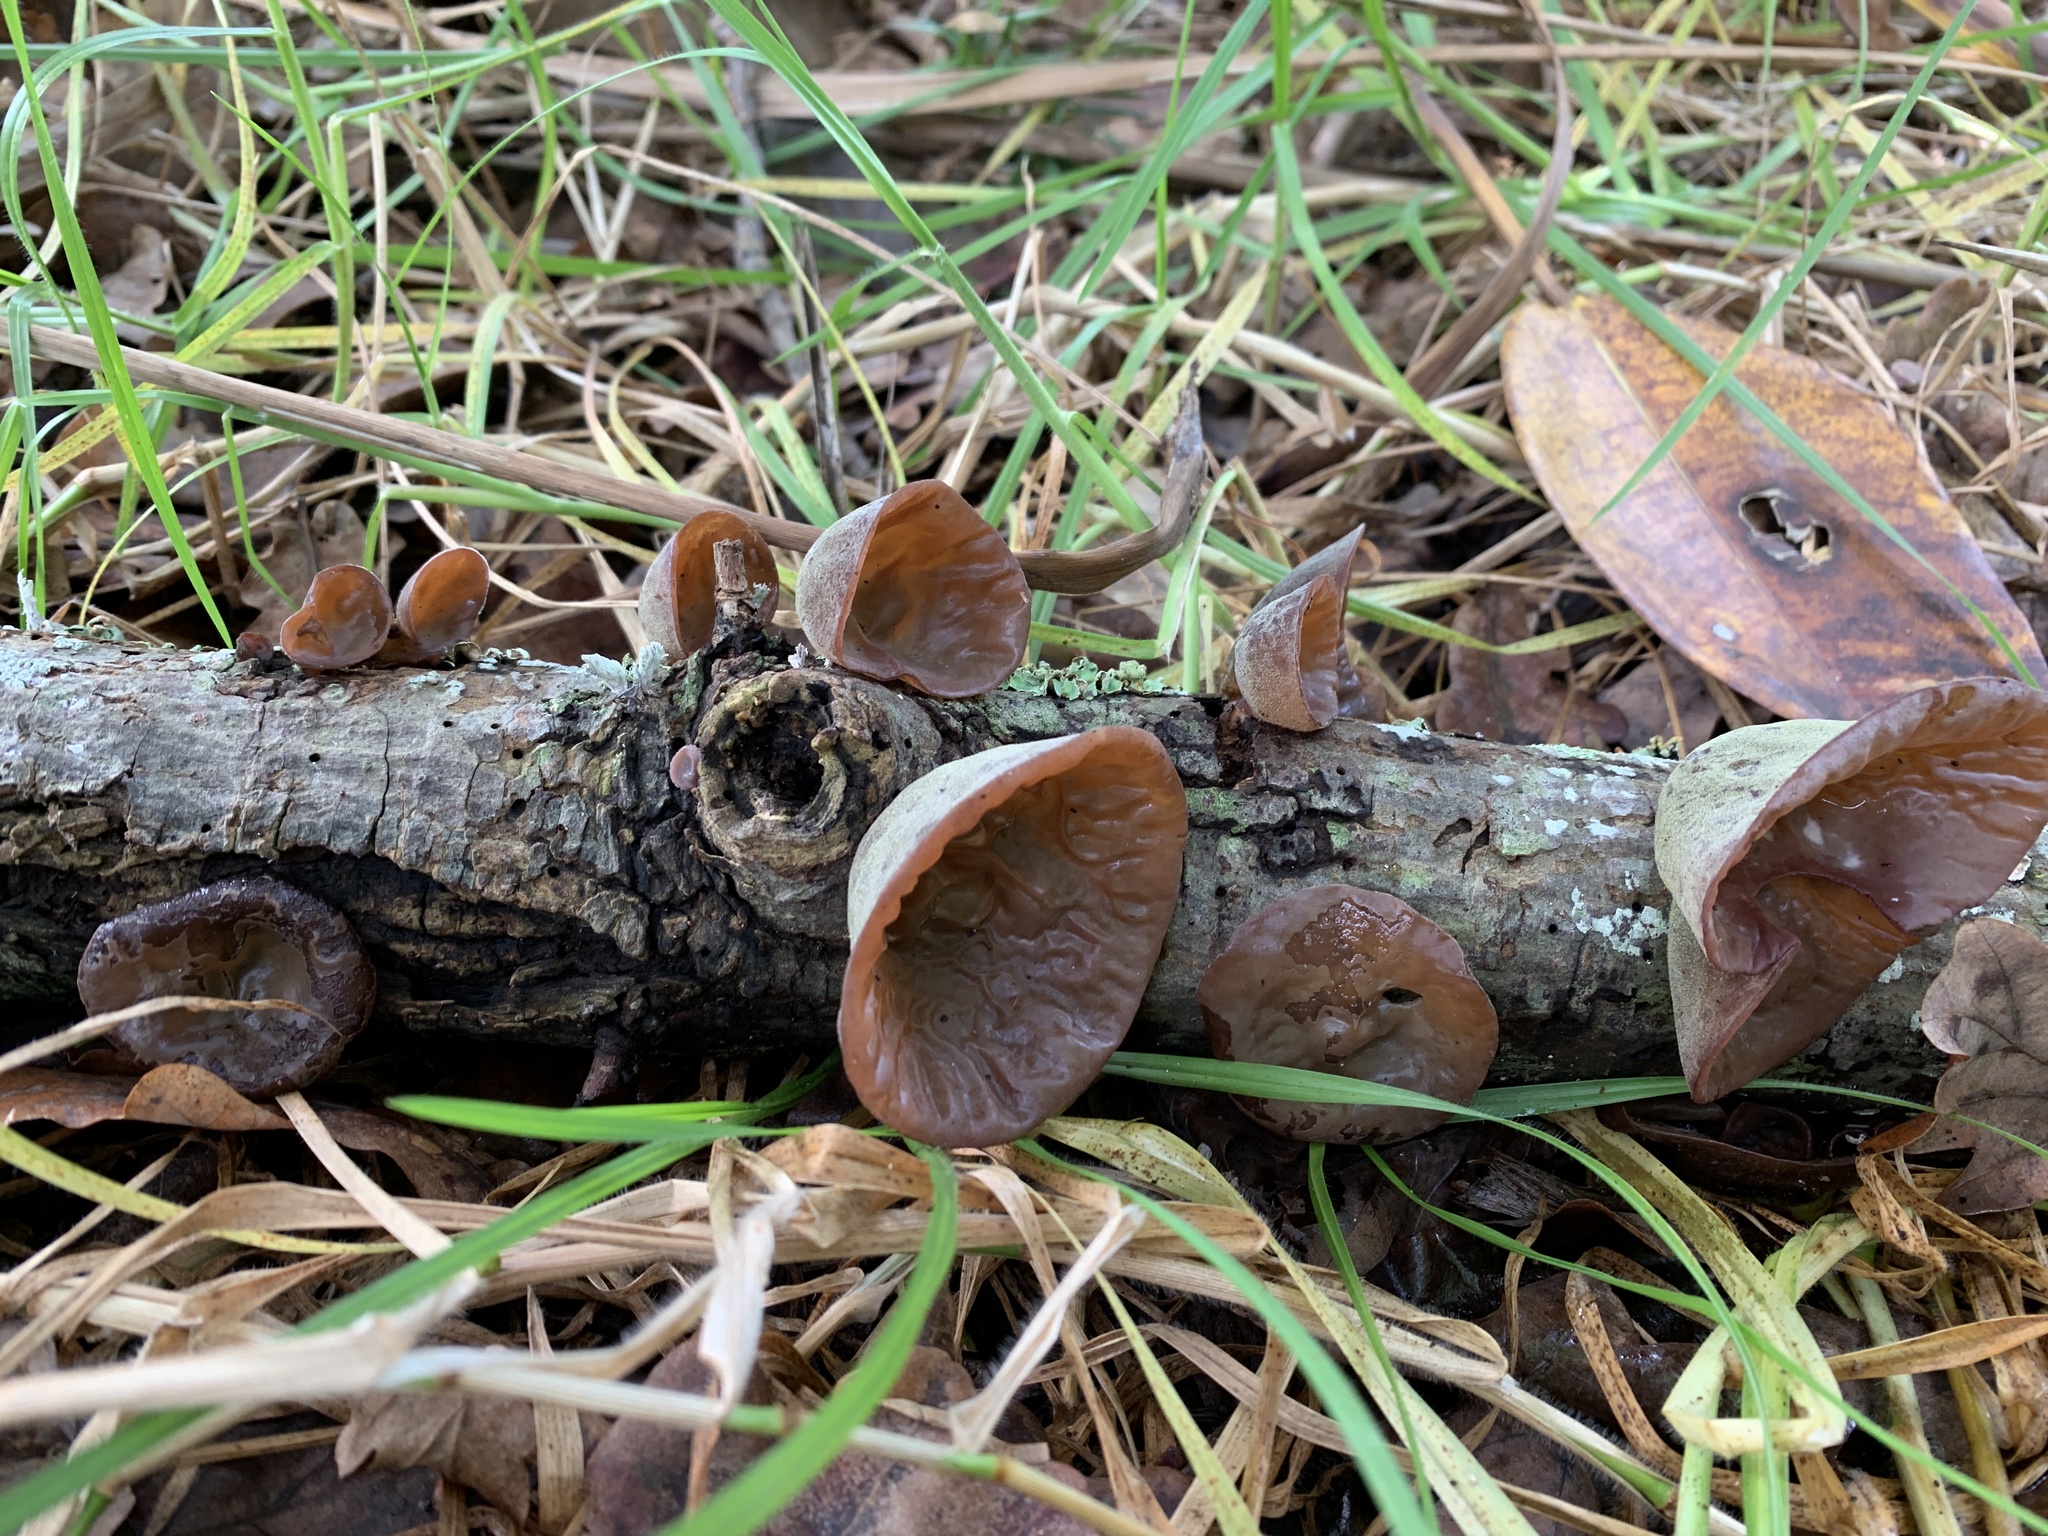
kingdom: Fungi
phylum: Basidiomycota
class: Agaricomycetes
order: Auriculariales
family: Auriculariaceae
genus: Auricularia
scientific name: Auricularia cornea
